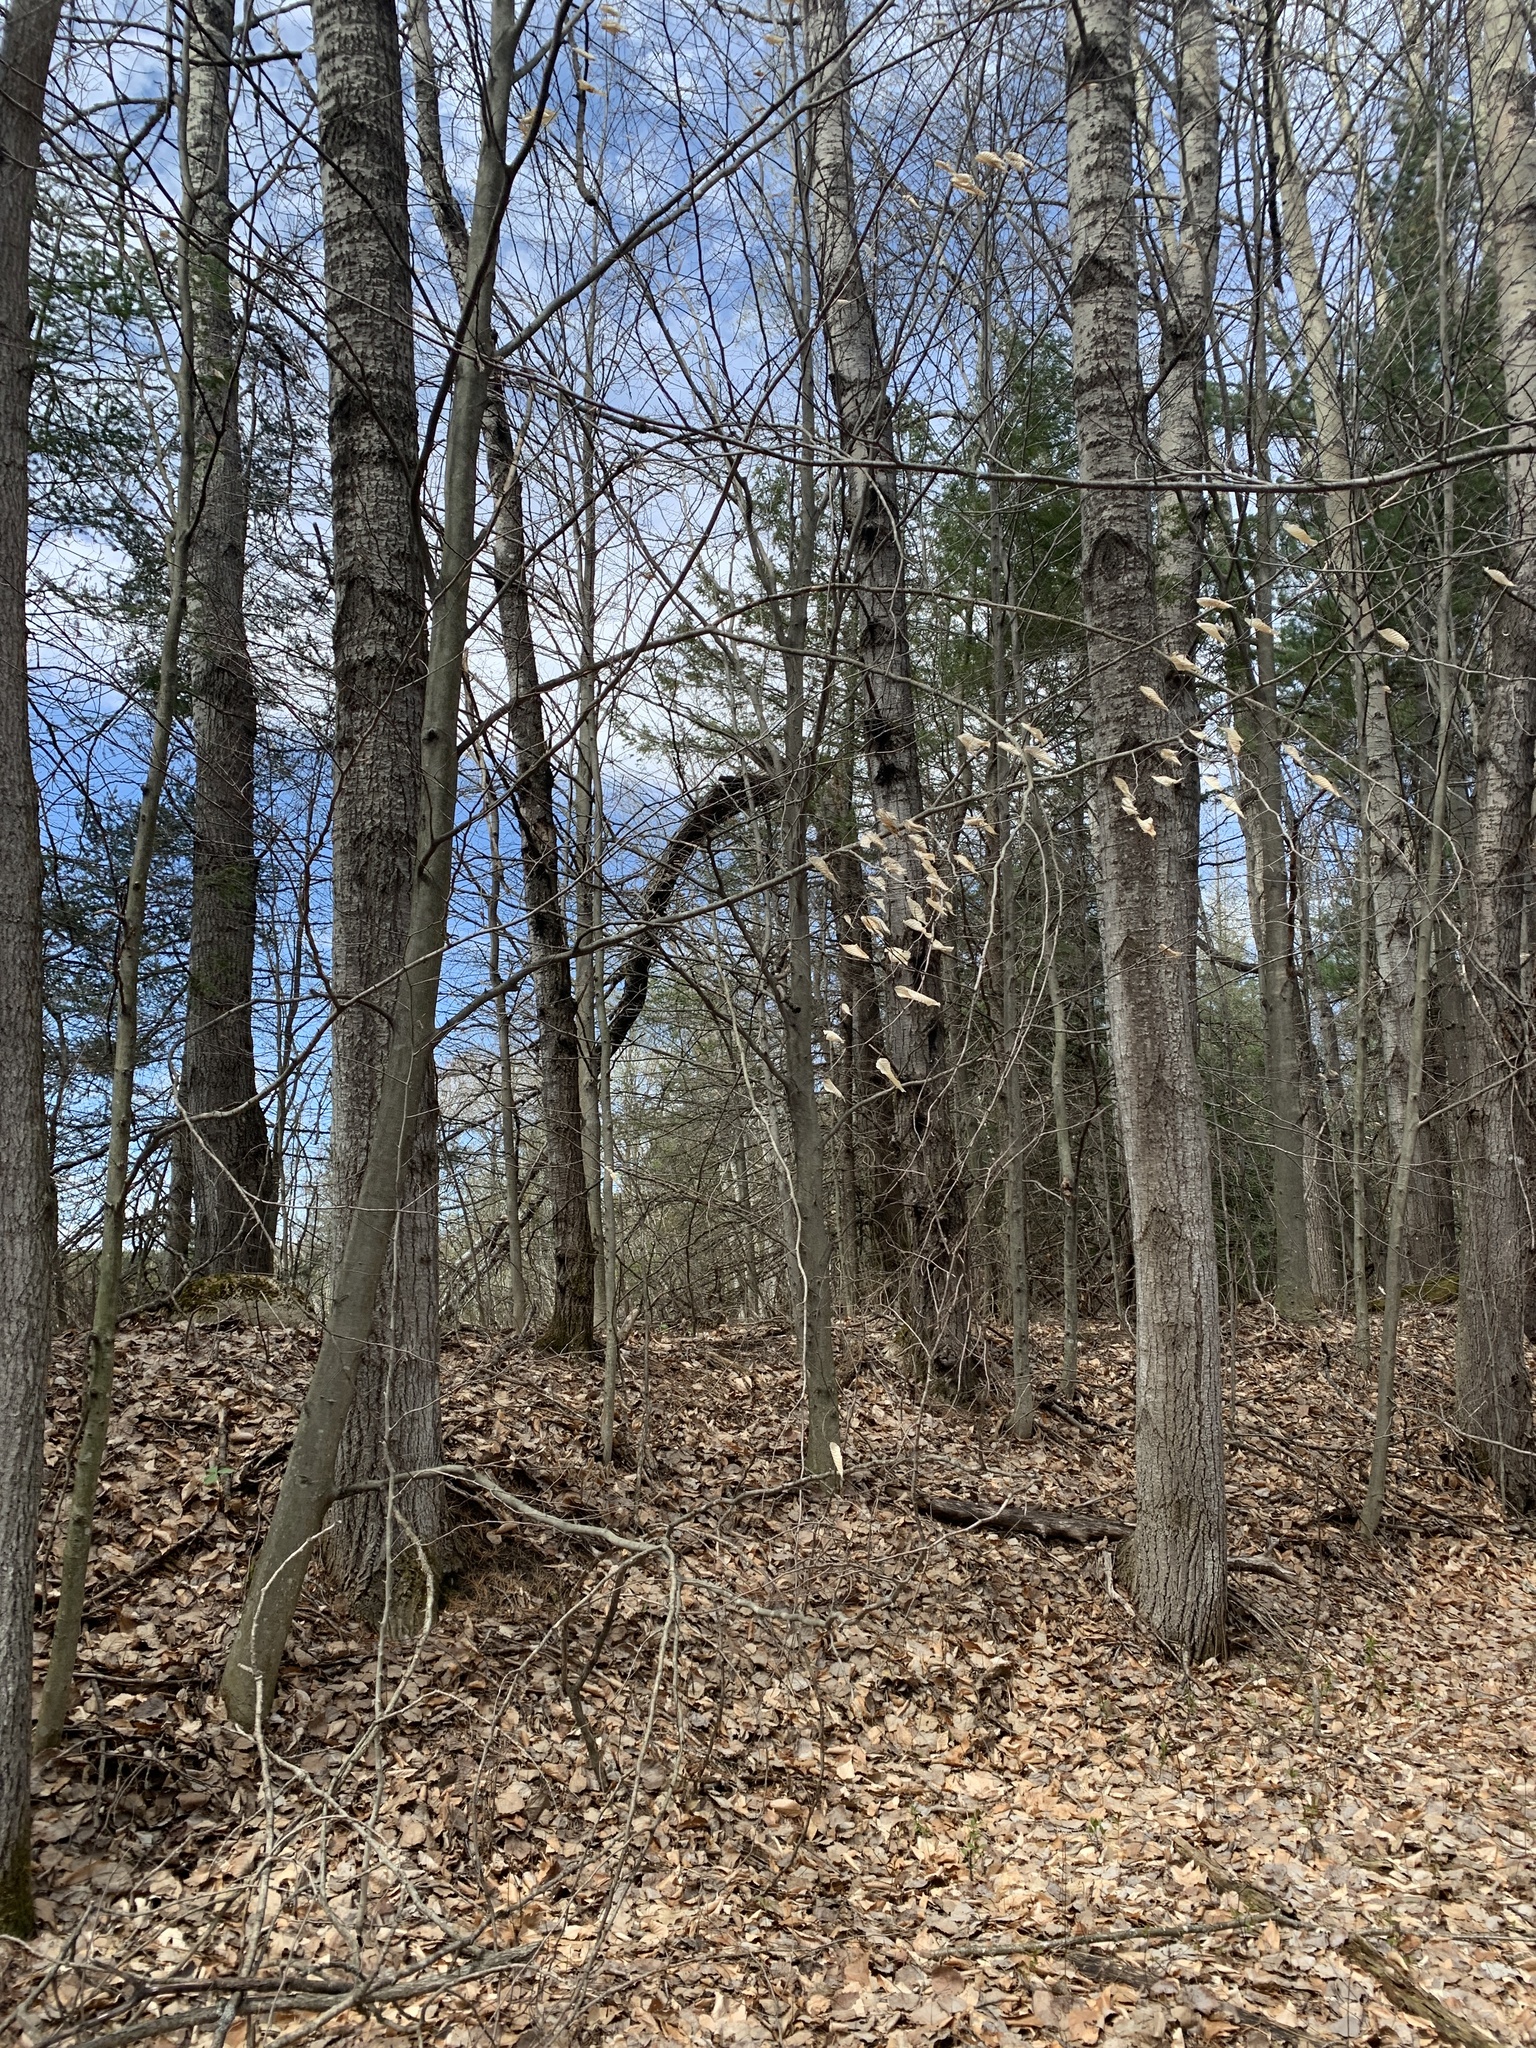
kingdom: Plantae
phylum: Tracheophyta
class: Magnoliopsida
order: Fagales
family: Fagaceae
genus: Fagus
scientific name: Fagus grandifolia
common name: American beech
